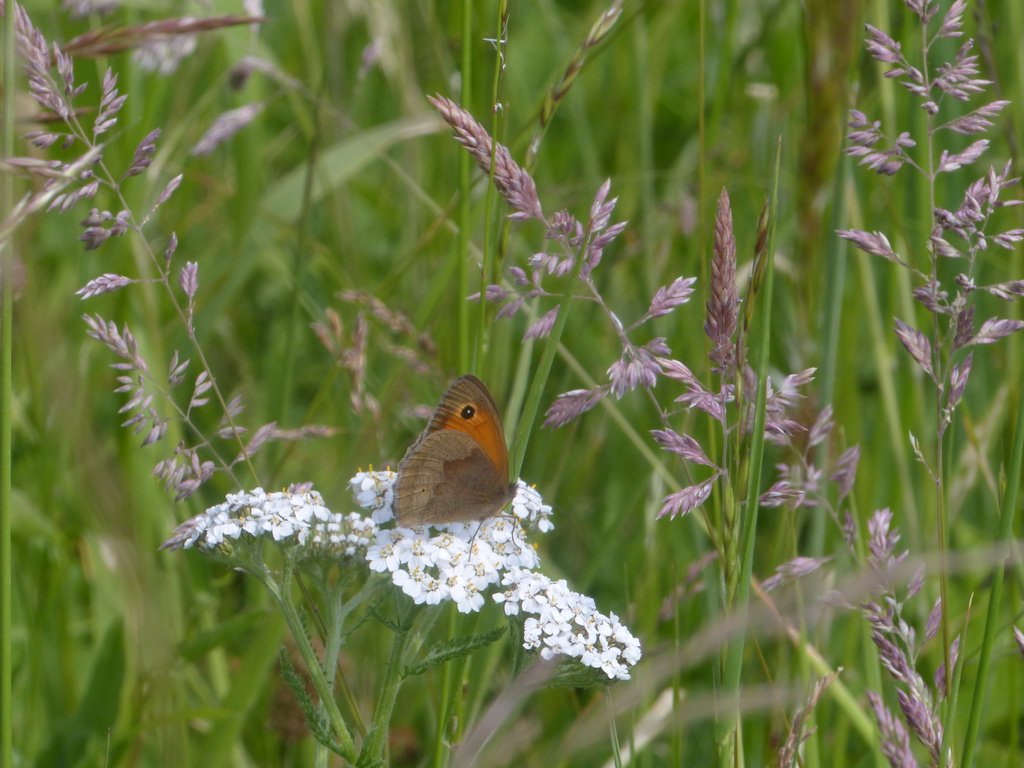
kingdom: Animalia
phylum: Arthropoda
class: Insecta
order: Lepidoptera
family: Nymphalidae
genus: Maniola
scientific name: Maniola jurtina
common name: Meadow brown
